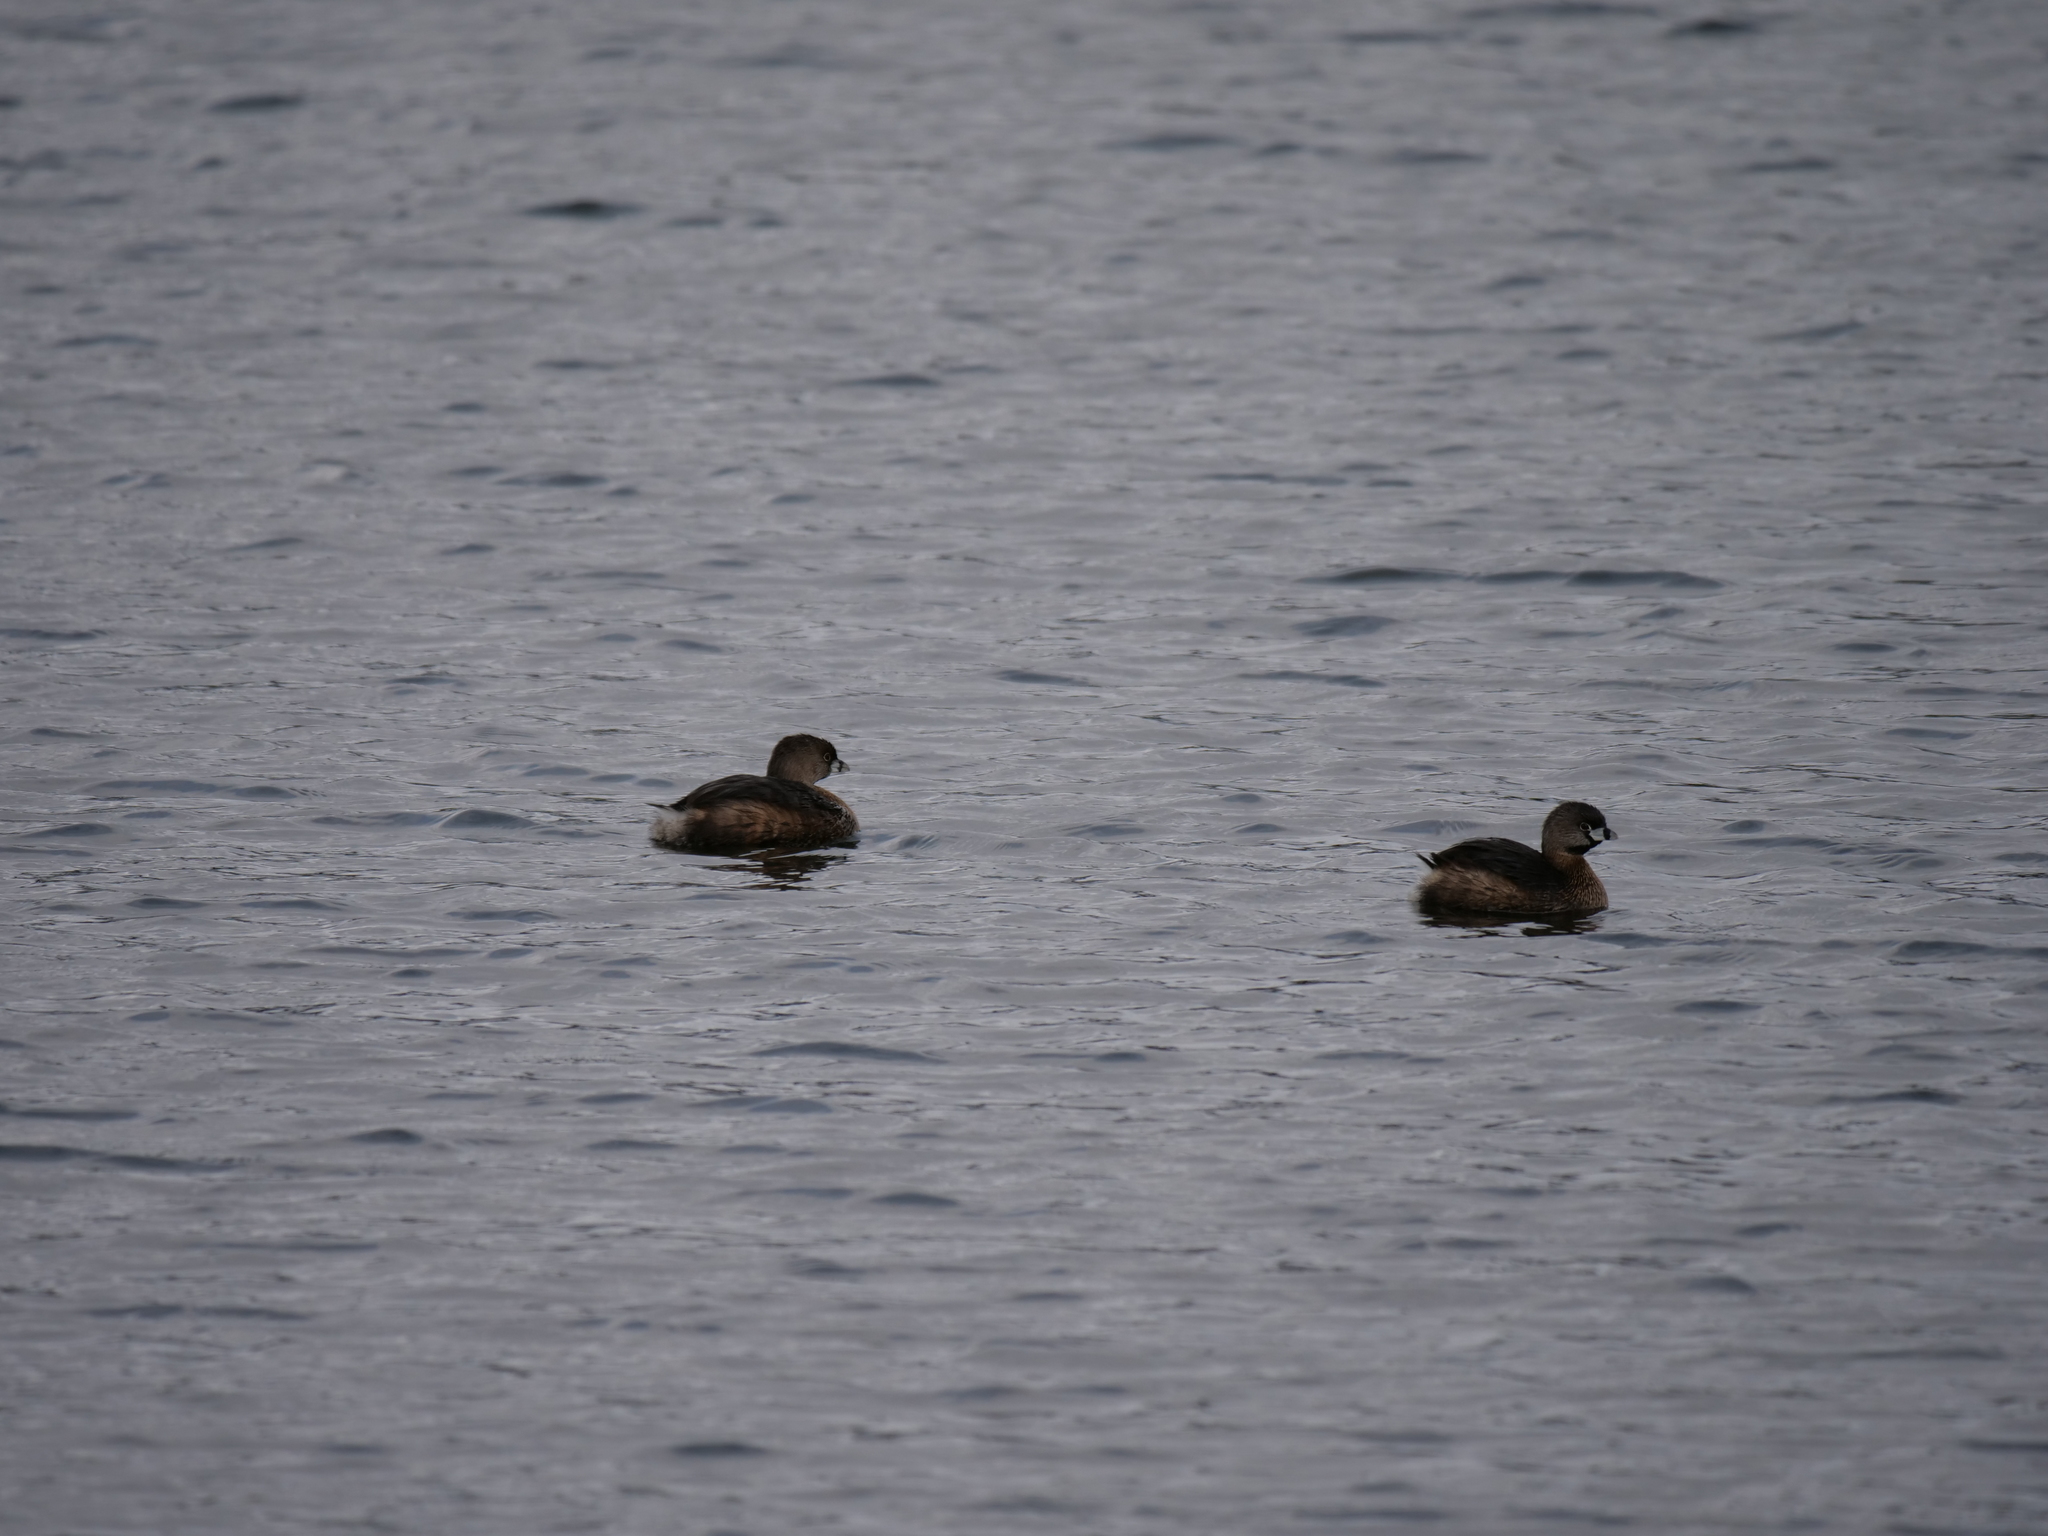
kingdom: Animalia
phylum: Chordata
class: Aves
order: Podicipediformes
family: Podicipedidae
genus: Podilymbus
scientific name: Podilymbus podiceps
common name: Pied-billed grebe
